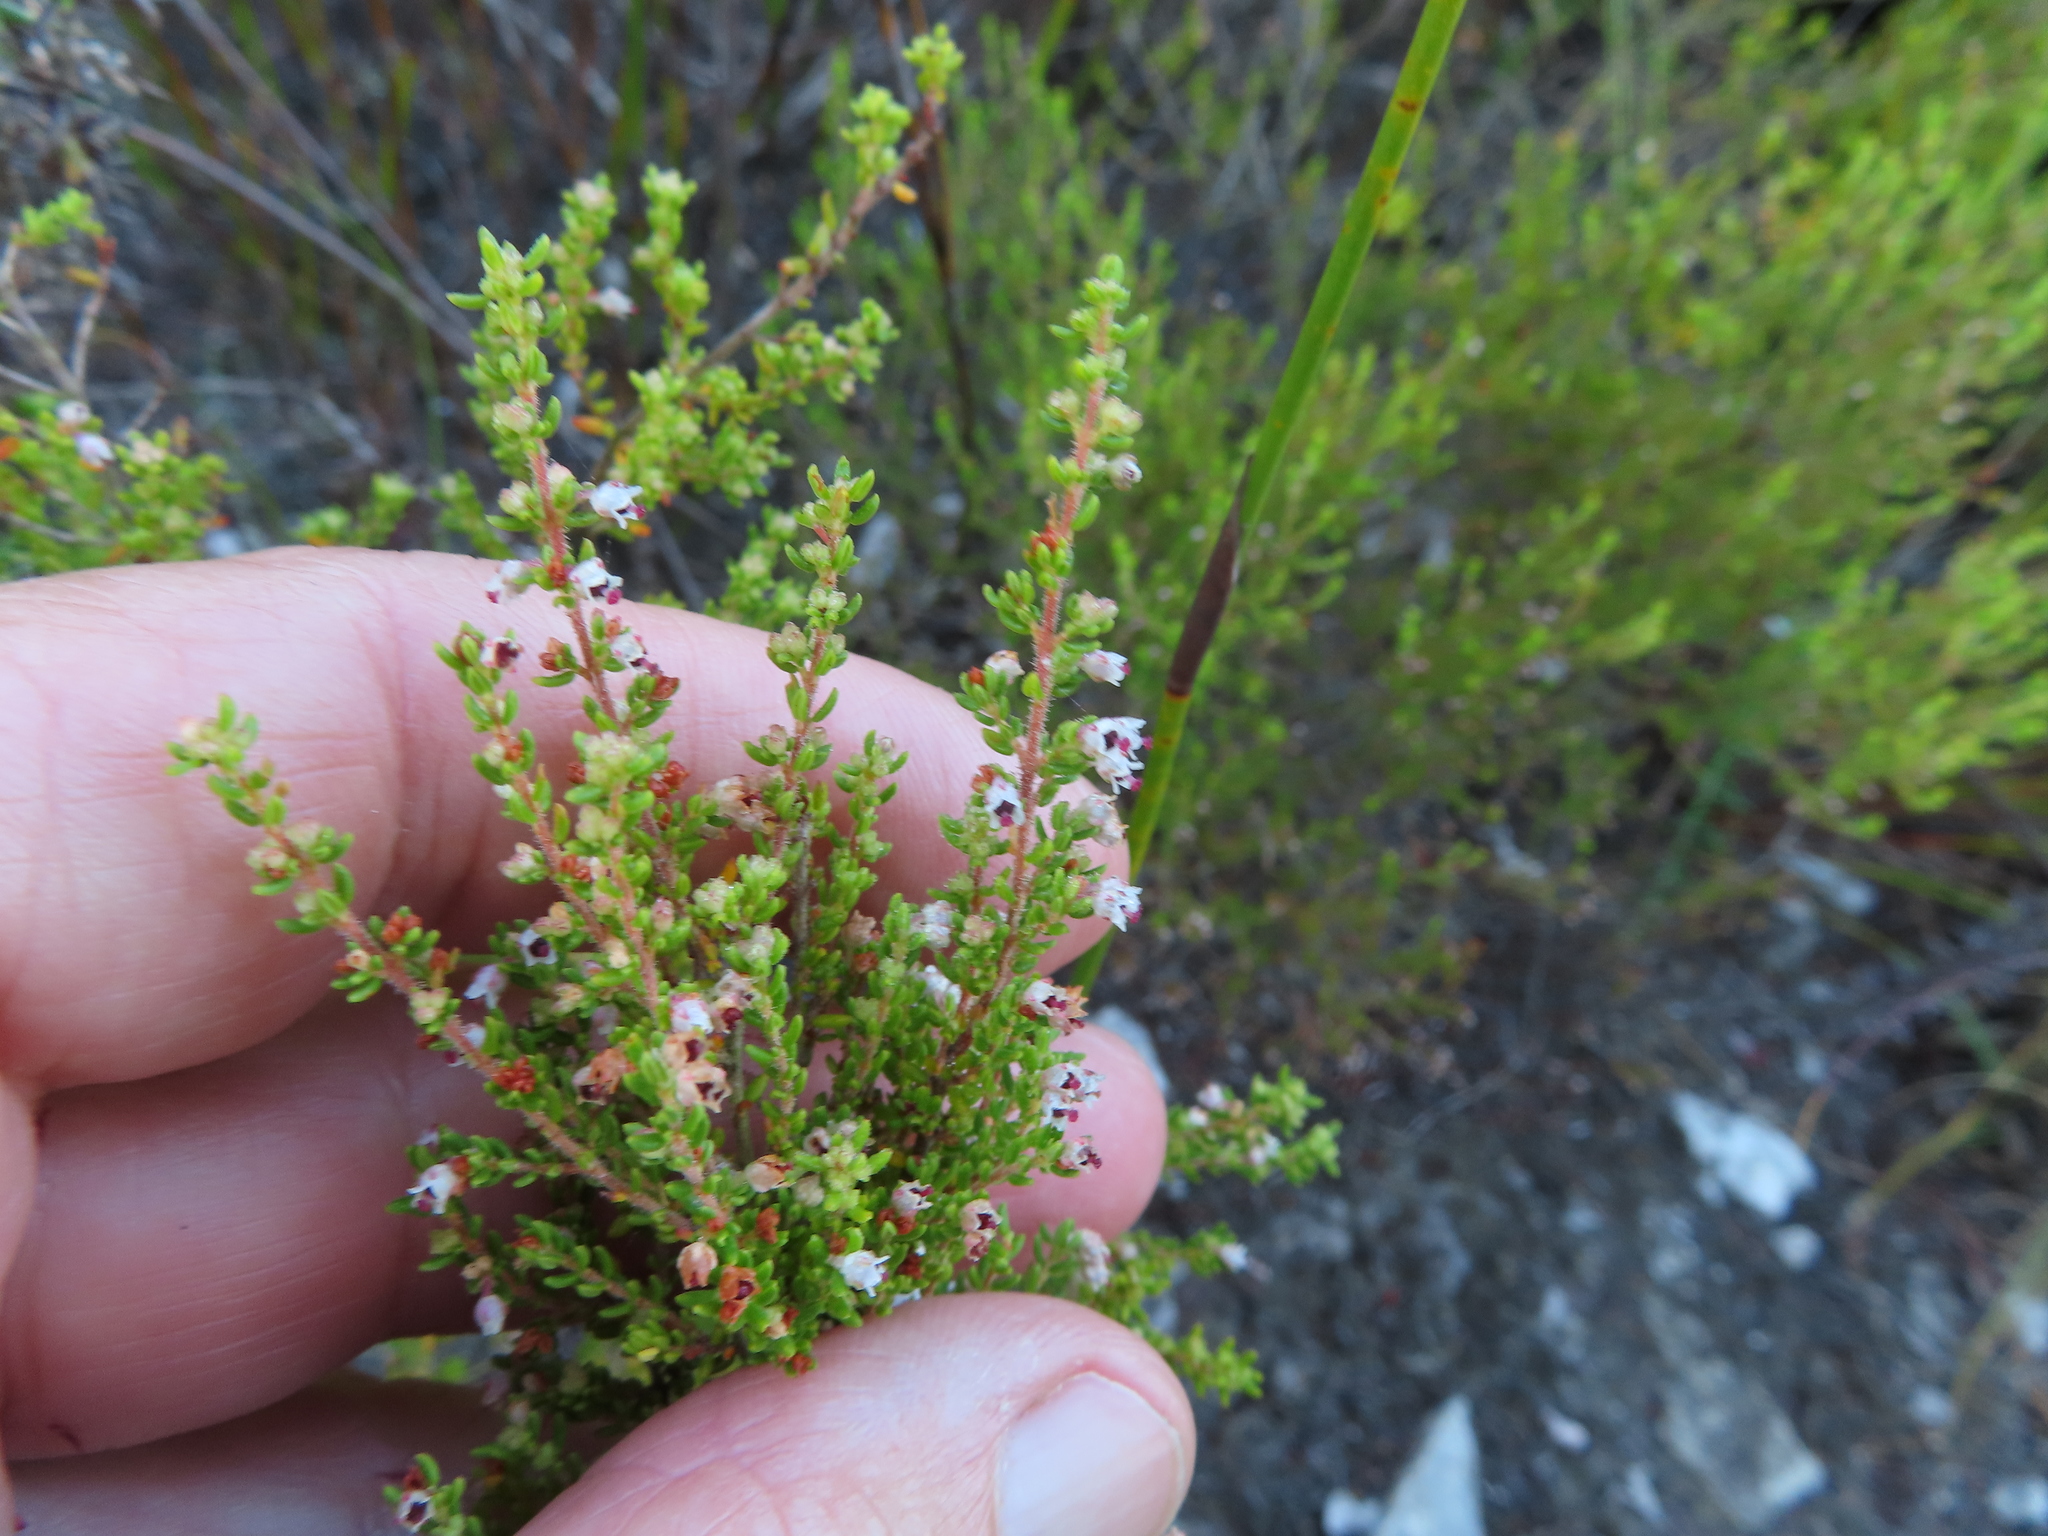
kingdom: Plantae
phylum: Tracheophyta
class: Magnoliopsida
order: Ericales
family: Ericaceae
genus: Erica
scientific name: Erica hispidula
